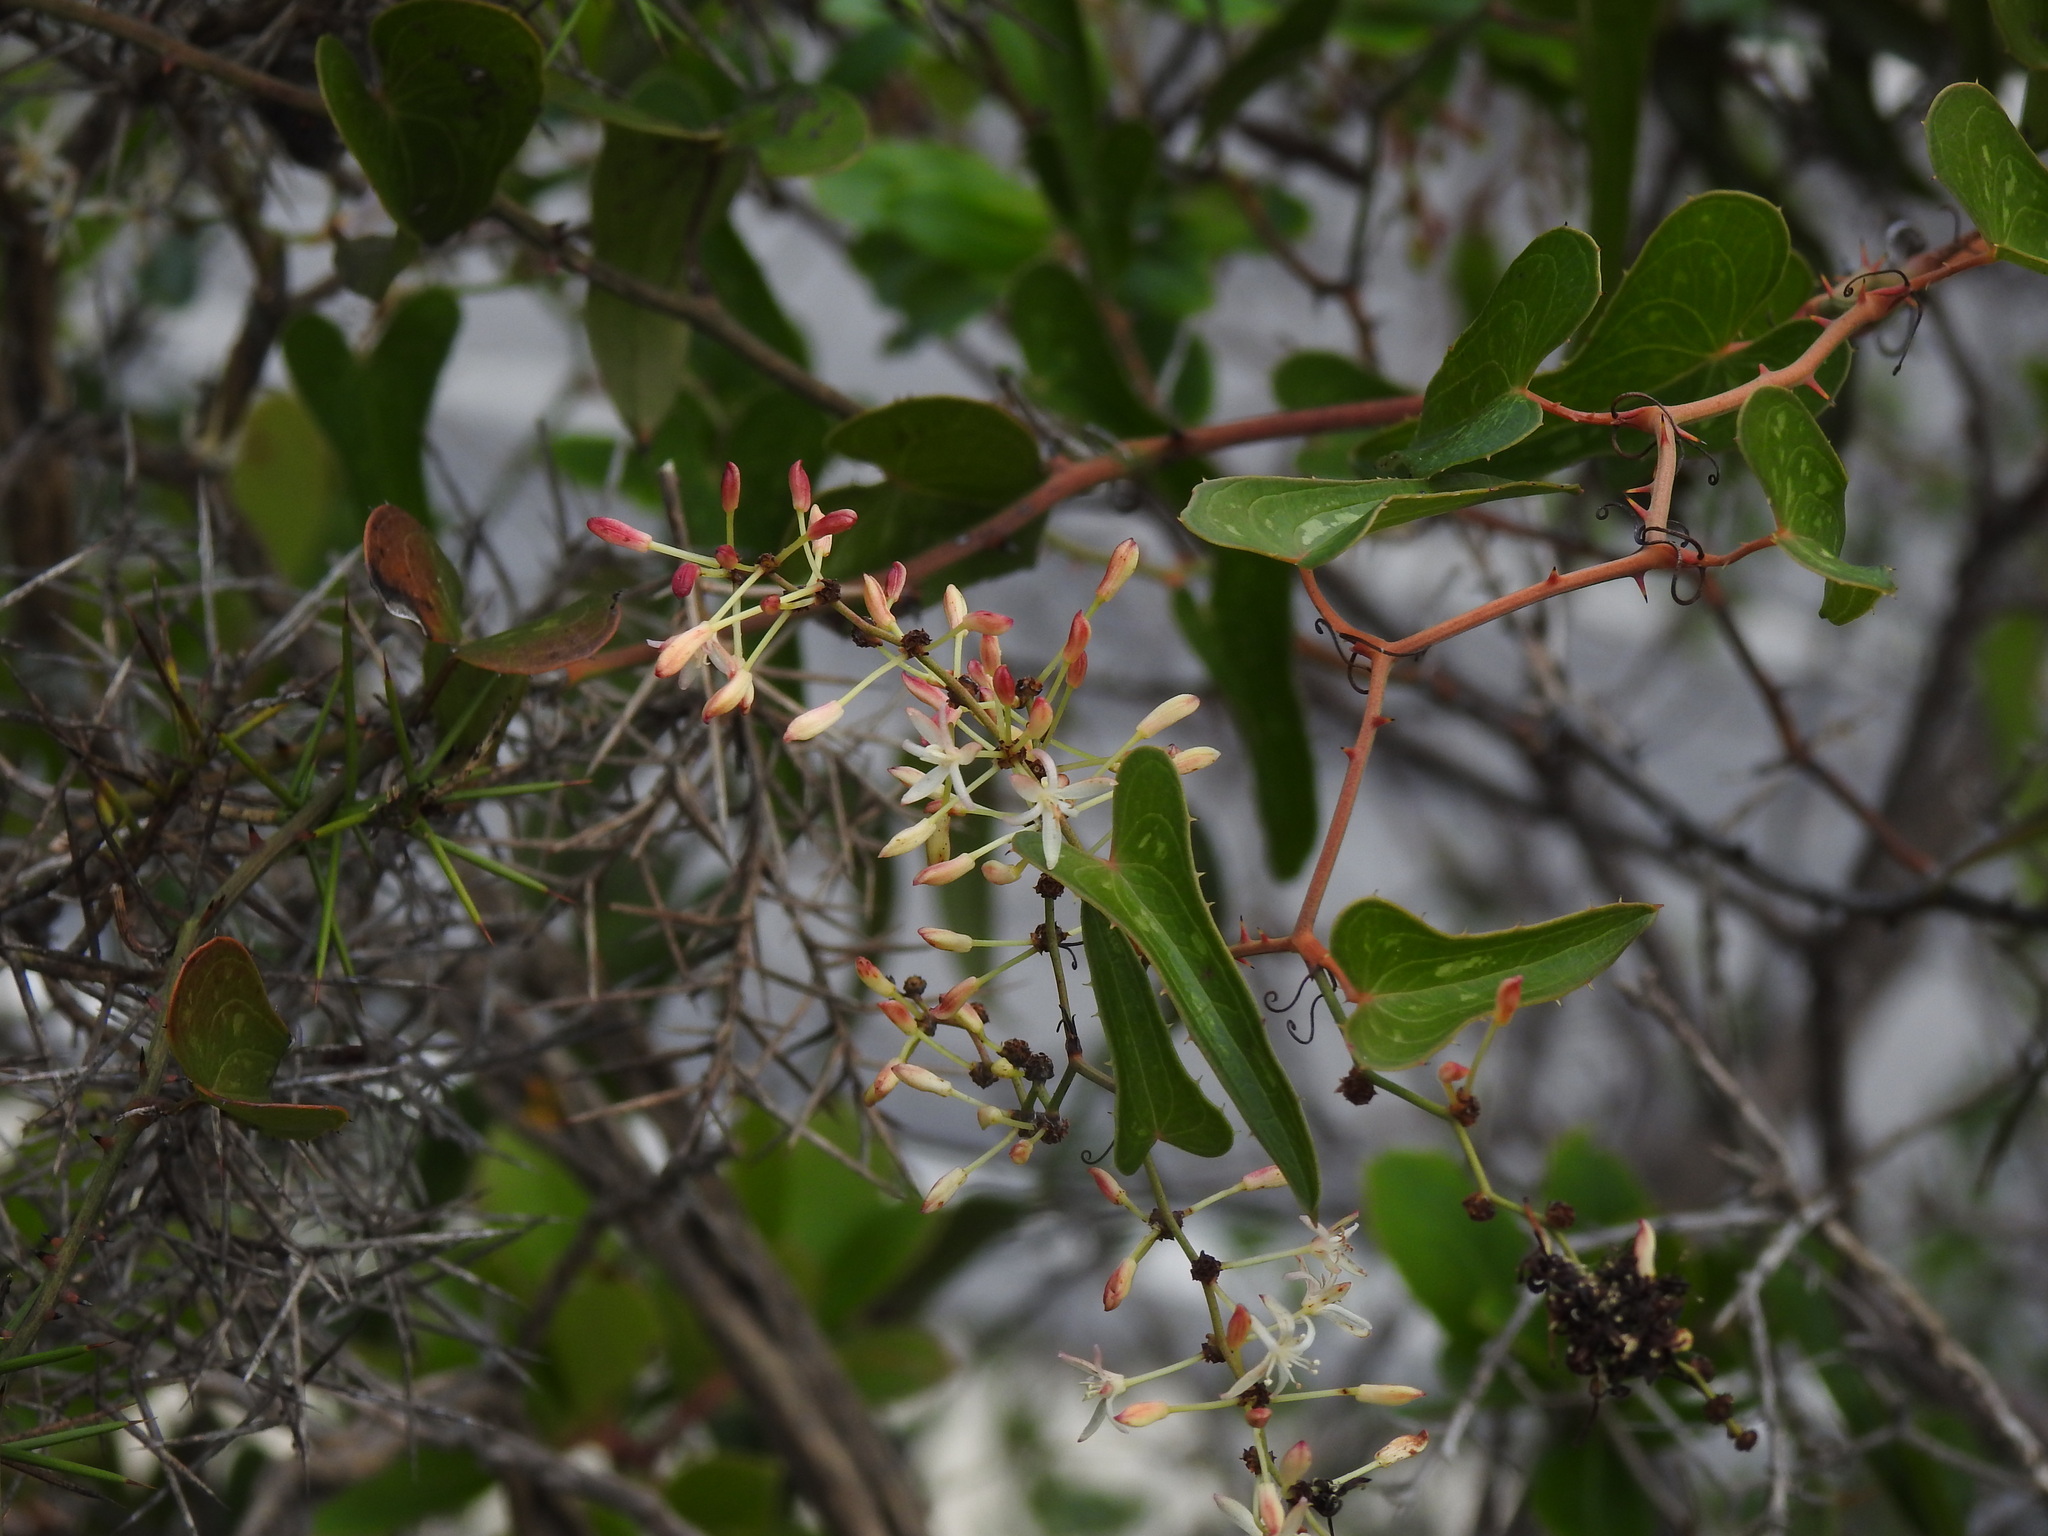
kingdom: Plantae
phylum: Tracheophyta
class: Liliopsida
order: Liliales
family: Smilacaceae
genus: Smilax
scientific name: Smilax aspera
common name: Common smilax
